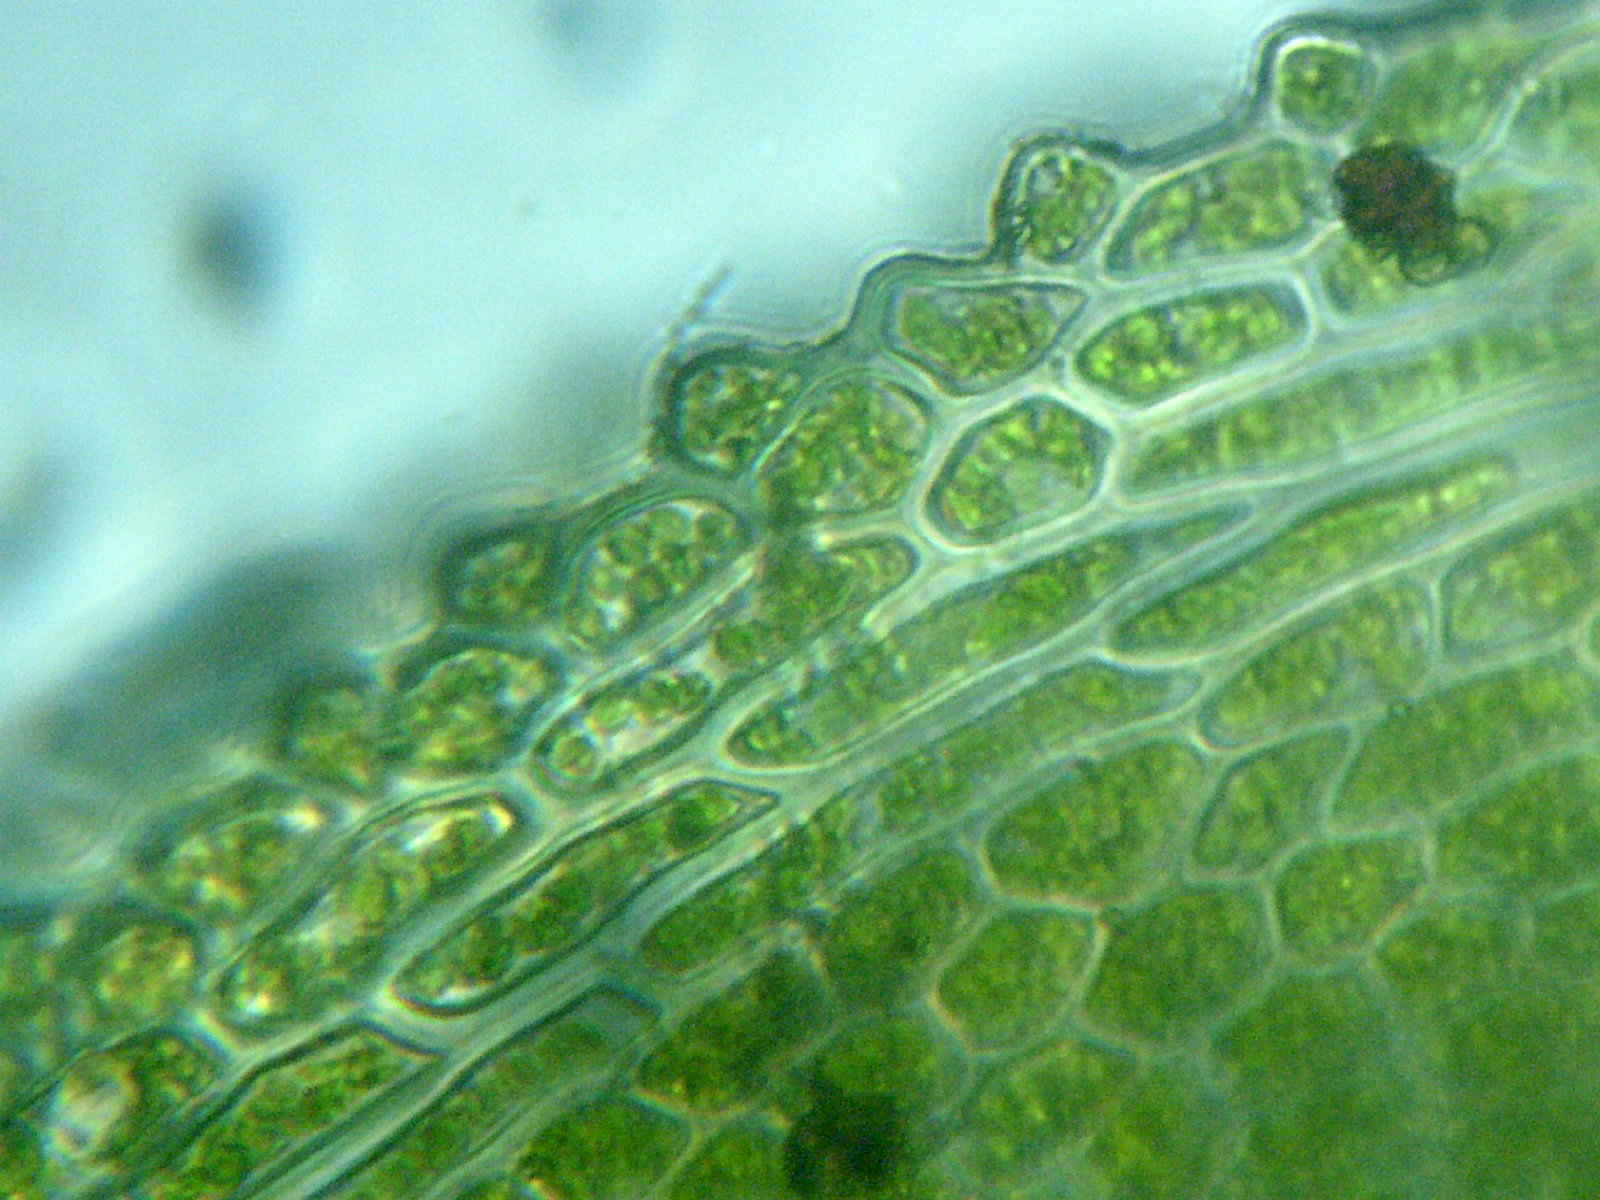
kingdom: Plantae
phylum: Bryophyta
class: Bryopsida
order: Dicranales
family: Fissidentaceae
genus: Fissidens
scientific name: Fissidens exilis
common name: Pygmy pocket moss
